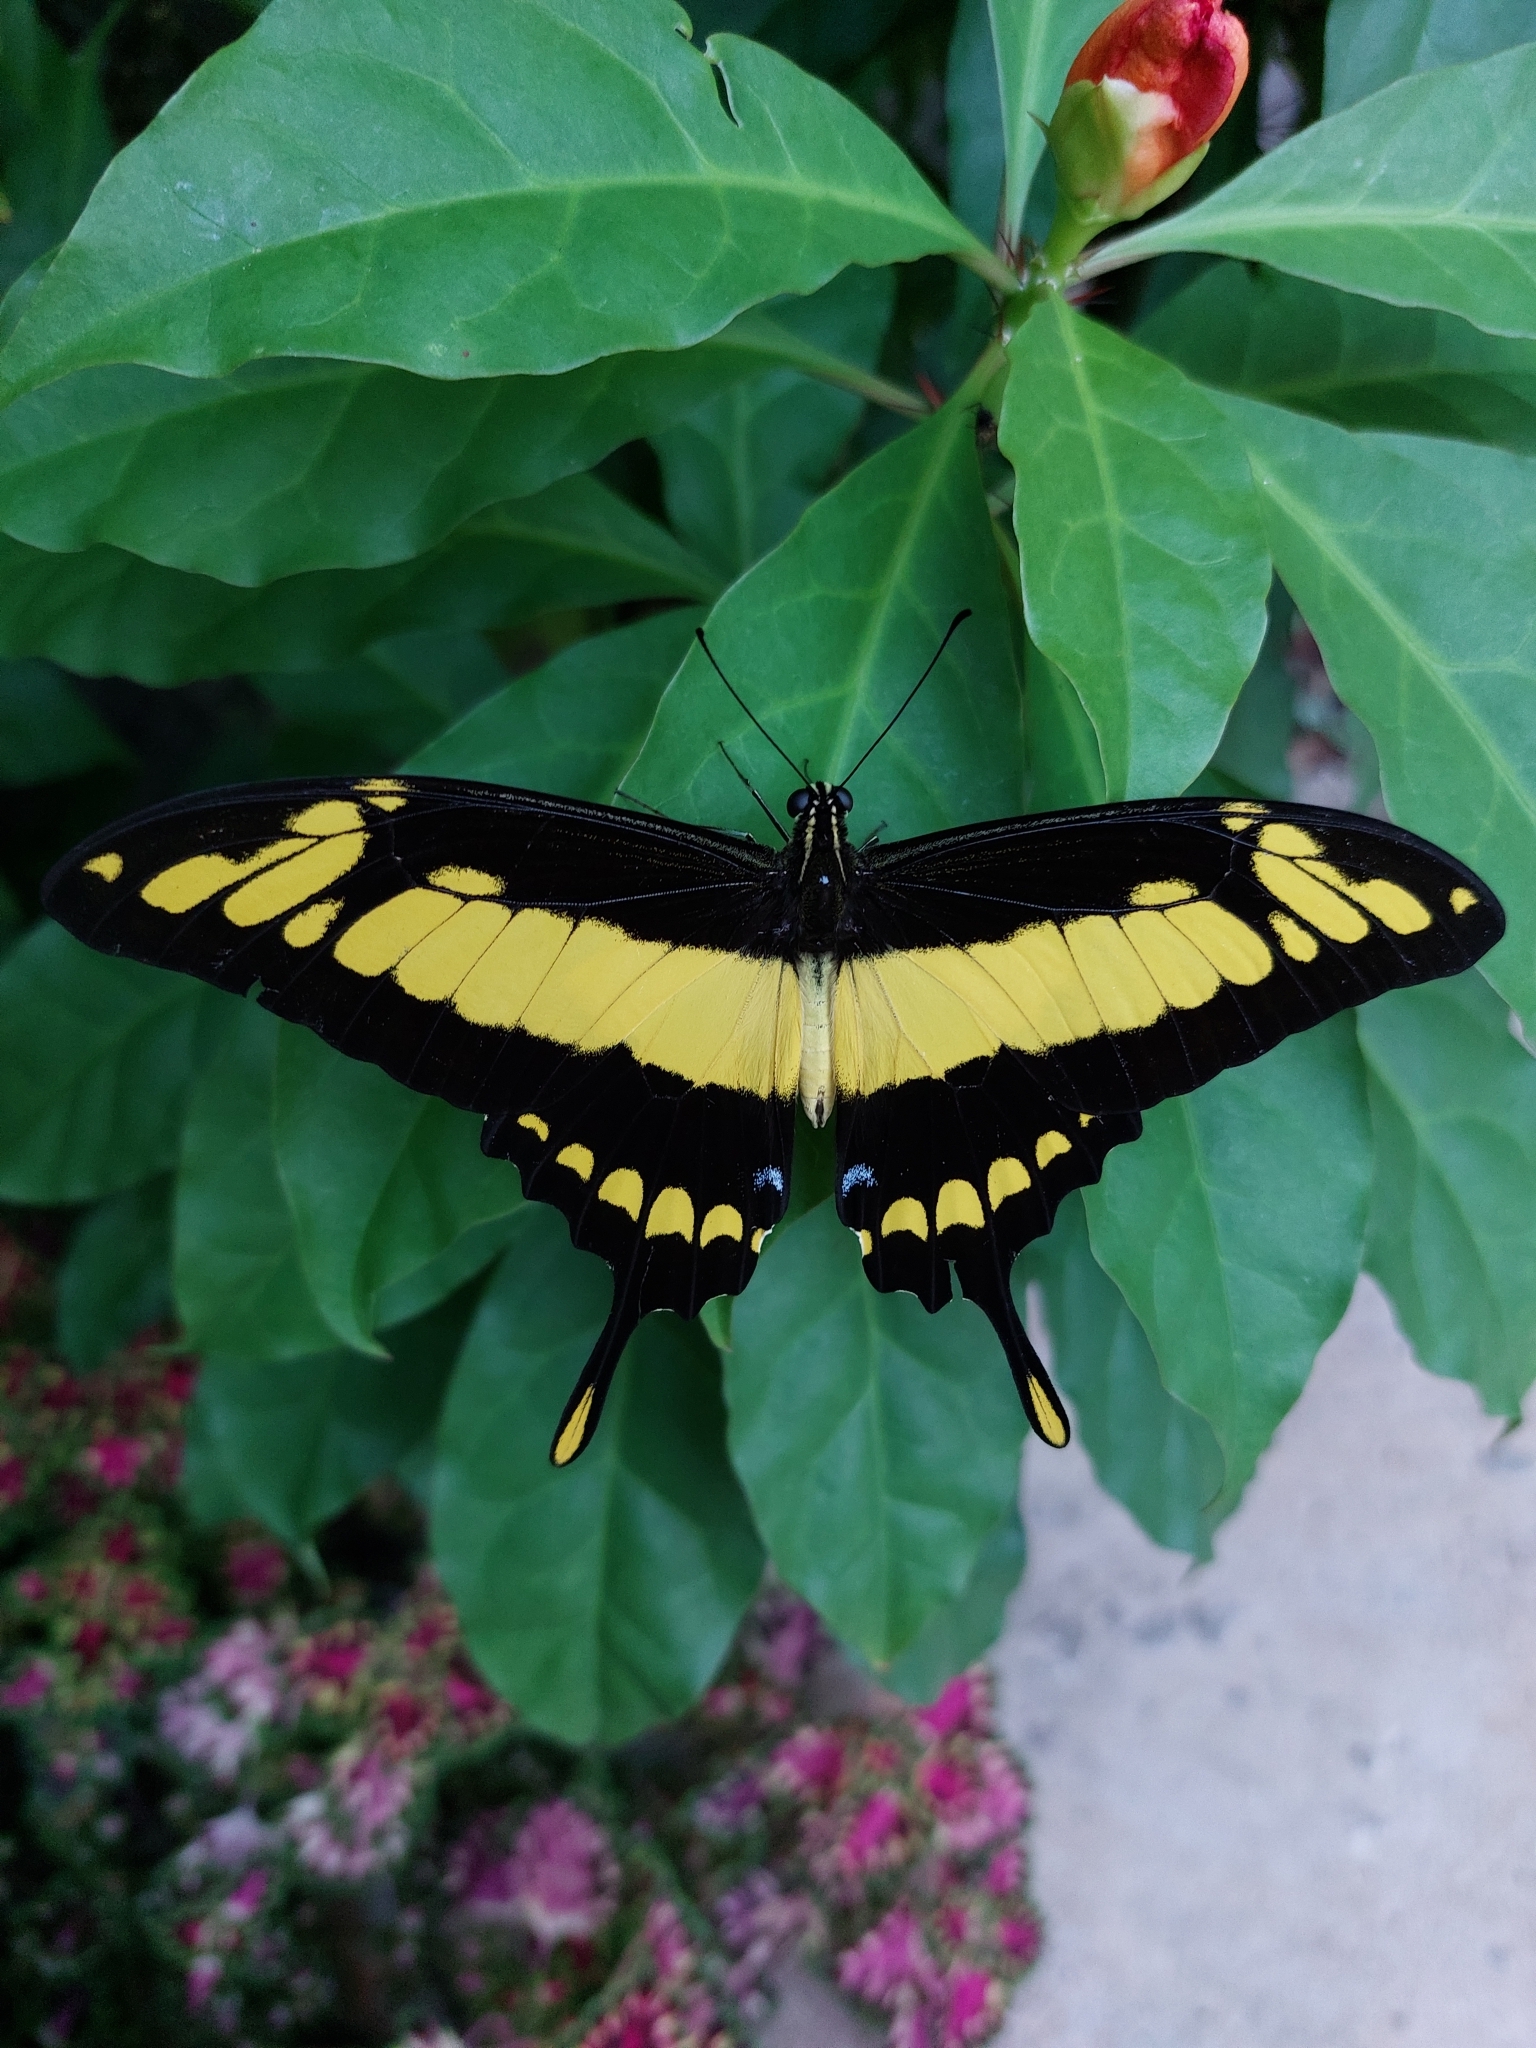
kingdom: Animalia
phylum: Arthropoda
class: Insecta
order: Lepidoptera
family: Papilionidae
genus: Papilio
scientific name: Papilio thoas
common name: King swallowtail
